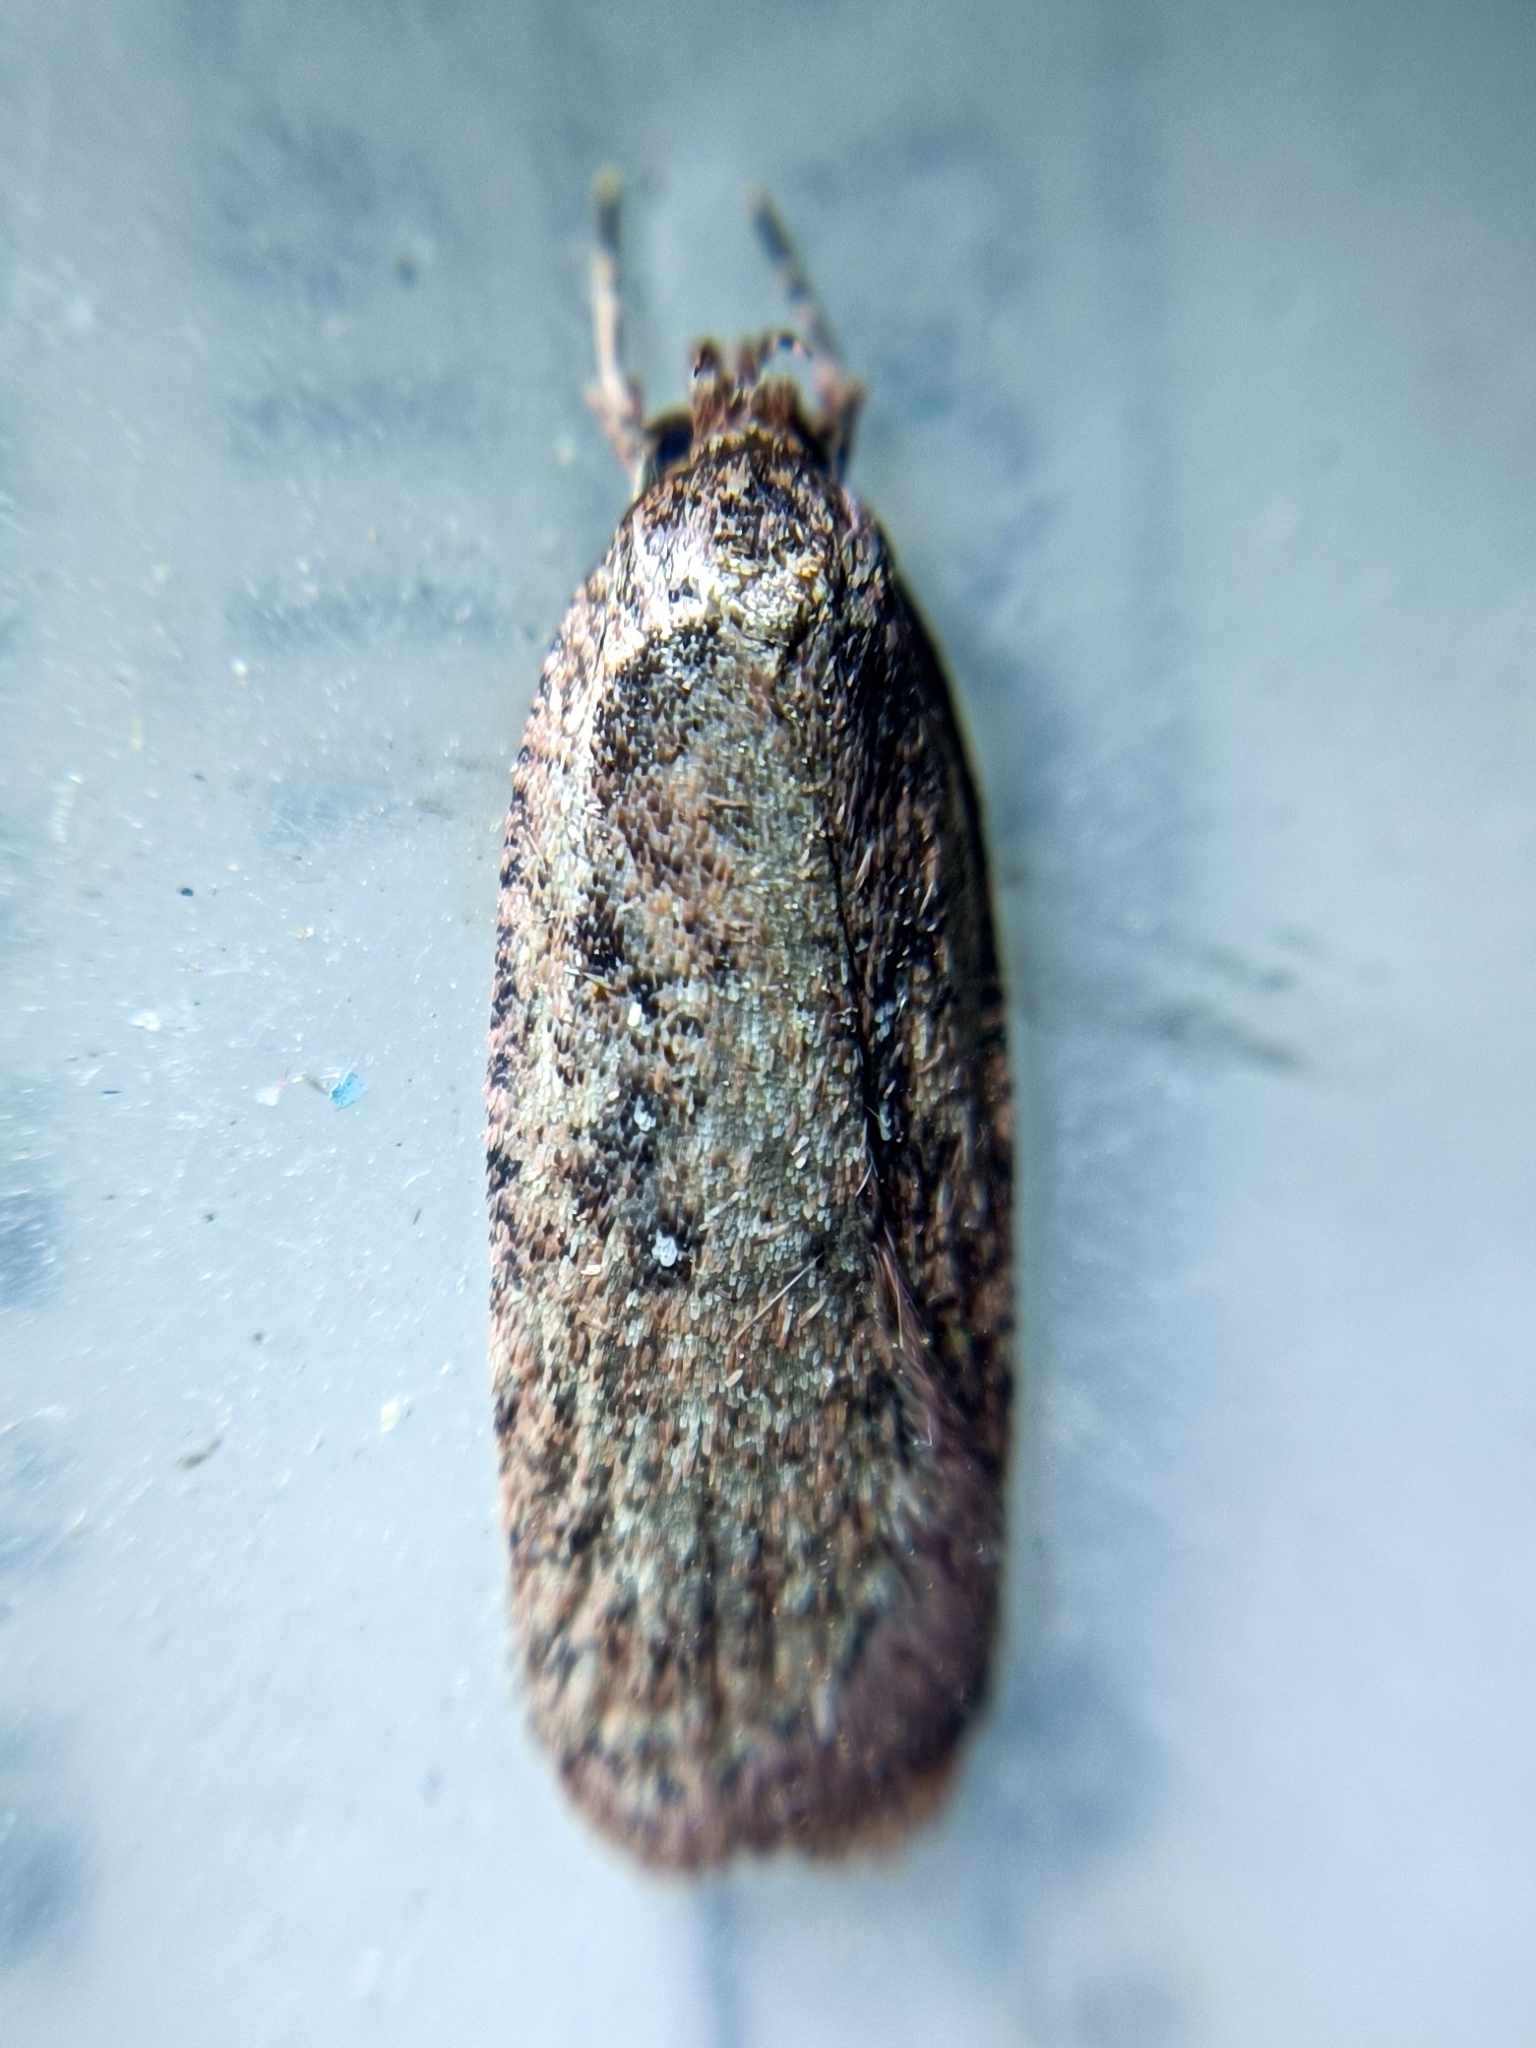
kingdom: Animalia
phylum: Arthropoda
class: Insecta
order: Lepidoptera
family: Depressariidae
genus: Agonopterix
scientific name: Agonopterix heracliana
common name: Common flat-body
